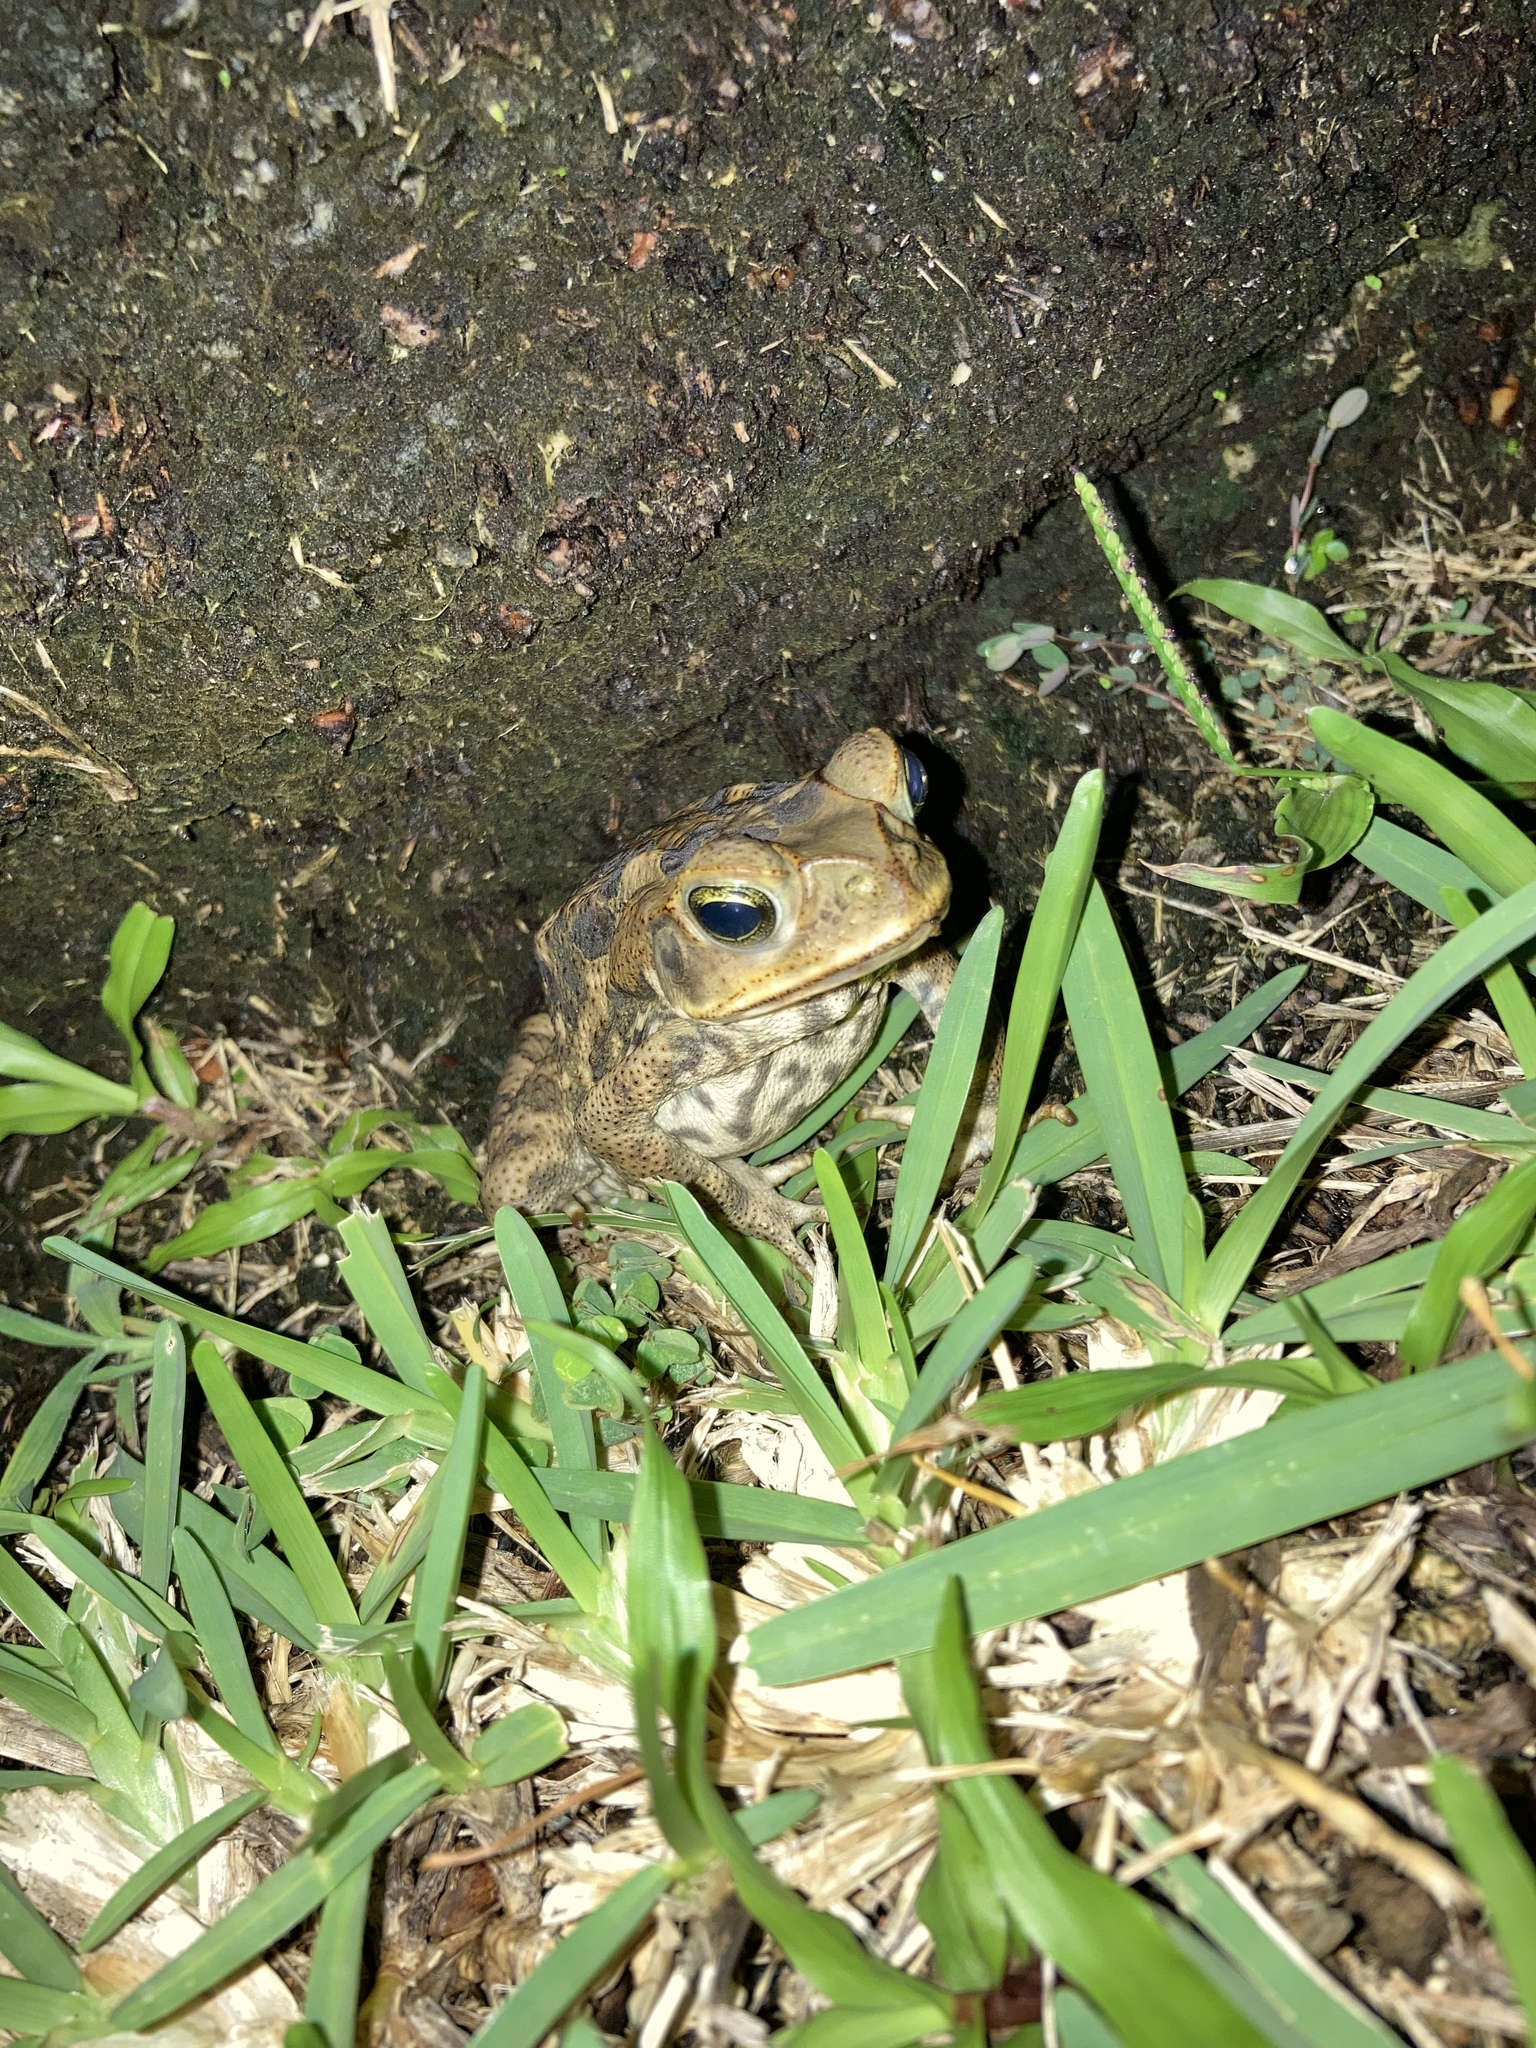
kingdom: Animalia
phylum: Chordata
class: Amphibia
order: Anura
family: Bufonidae
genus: Rhinella
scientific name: Rhinella marina
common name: Cane toad
